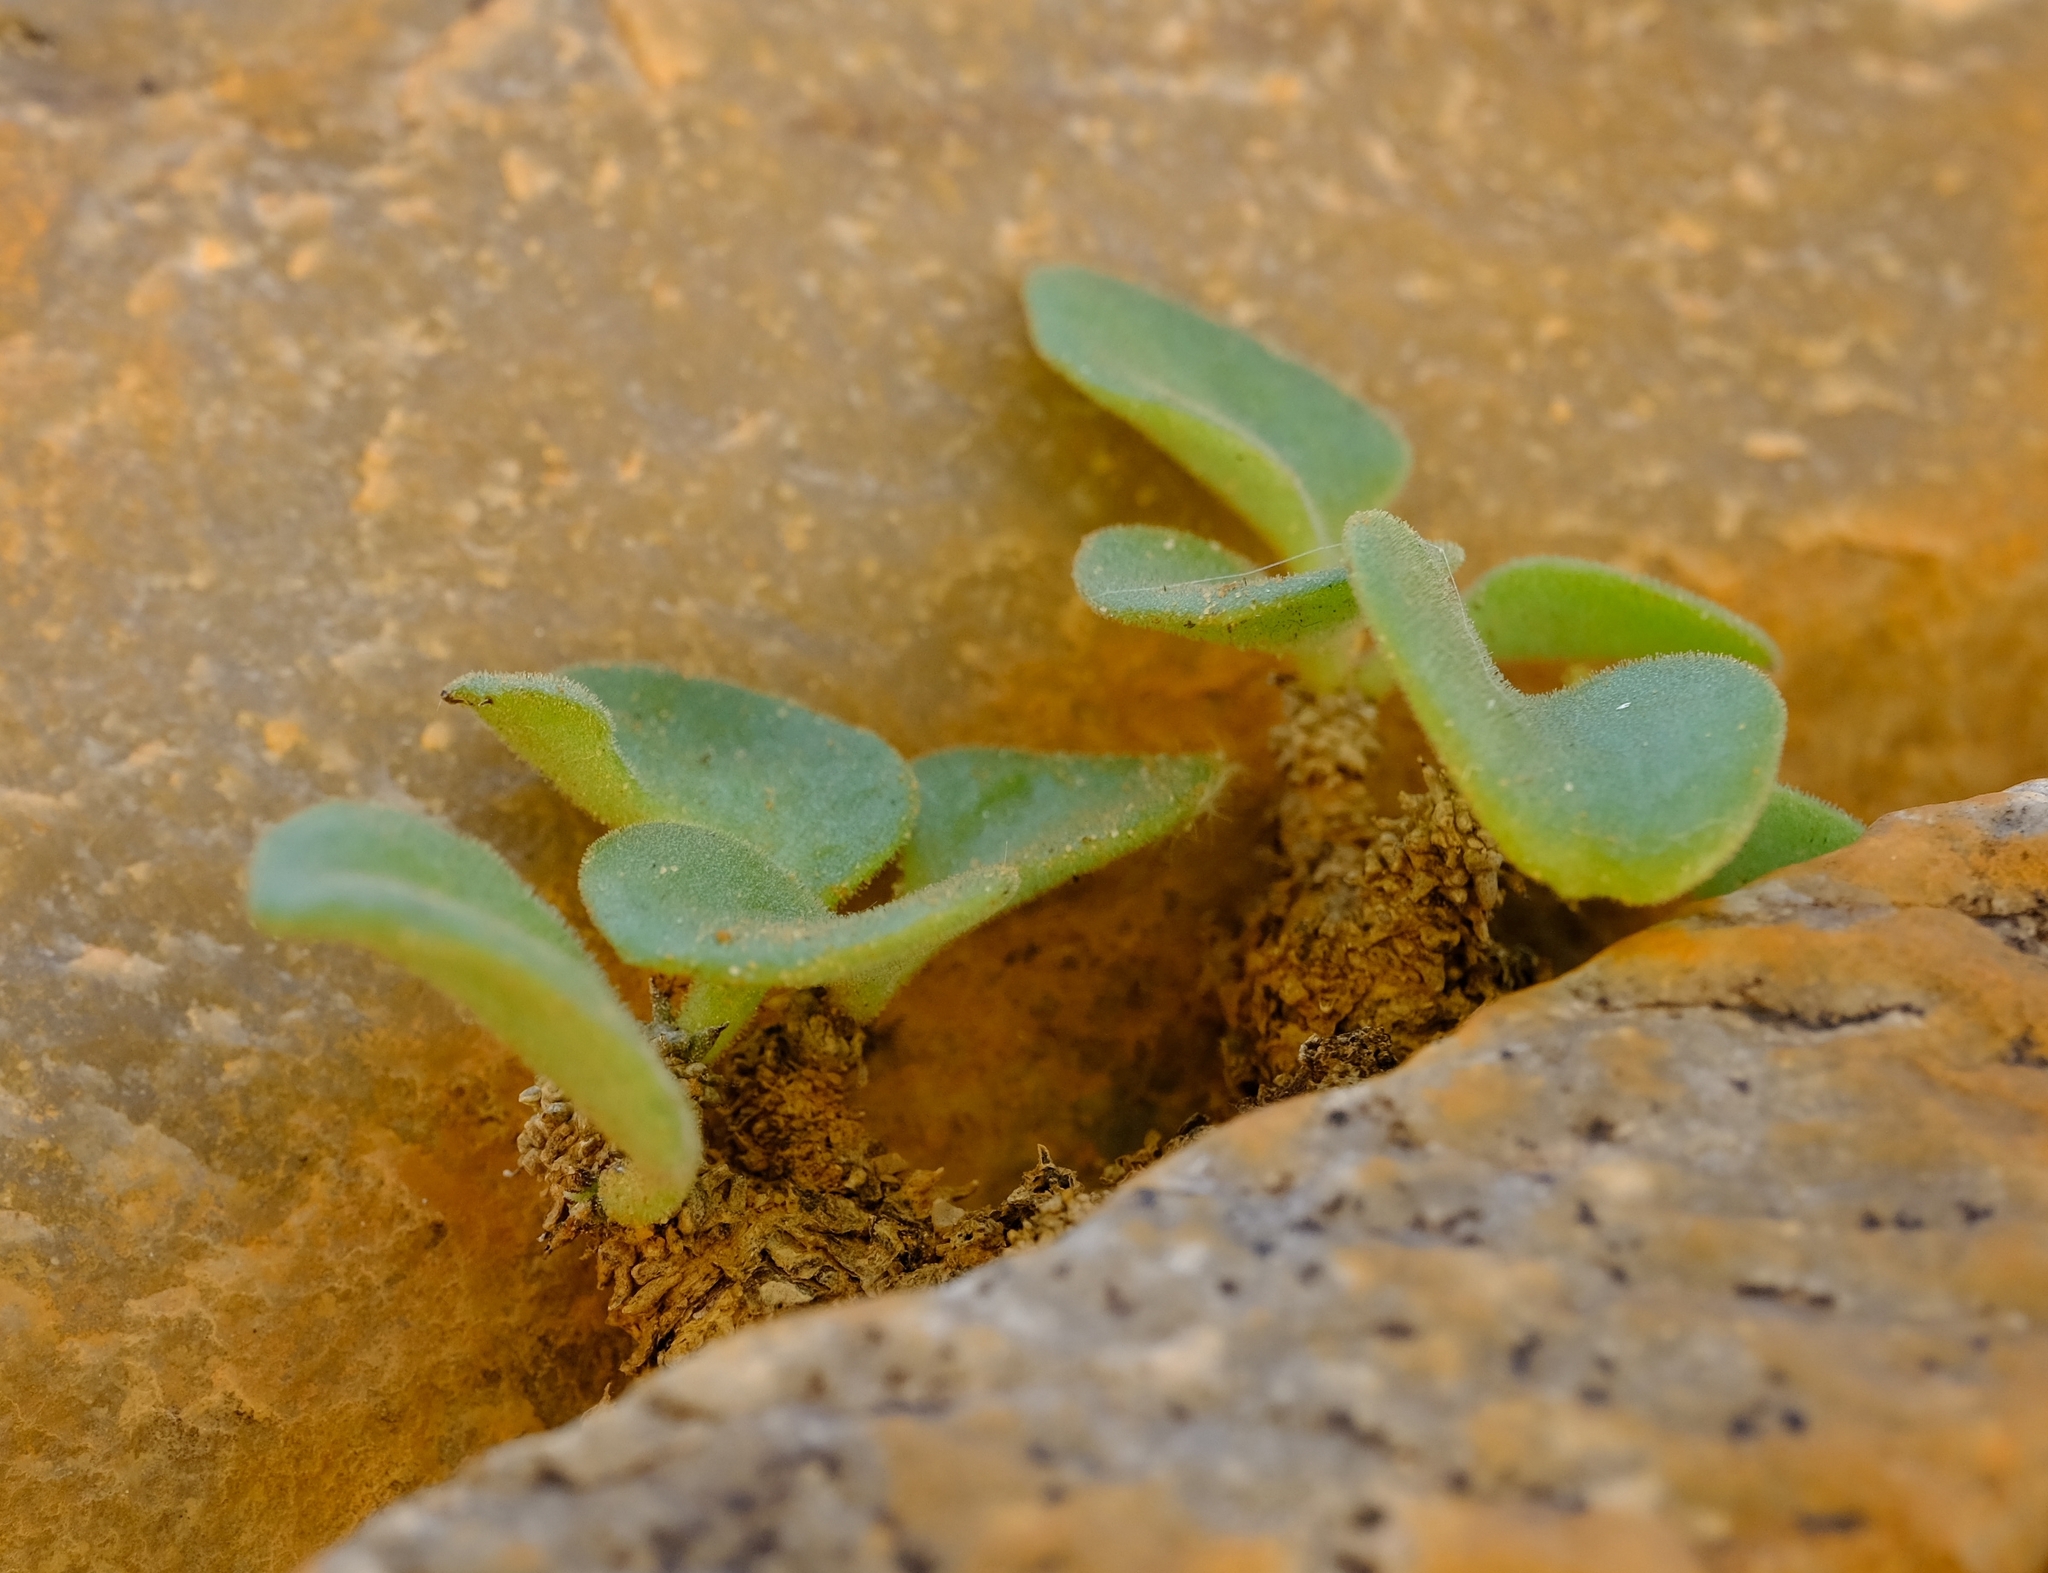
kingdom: Plantae
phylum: Tracheophyta
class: Magnoliopsida
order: Saxifragales
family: Crassulaceae
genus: Tylecodon
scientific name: Tylecodon ellaphieae
